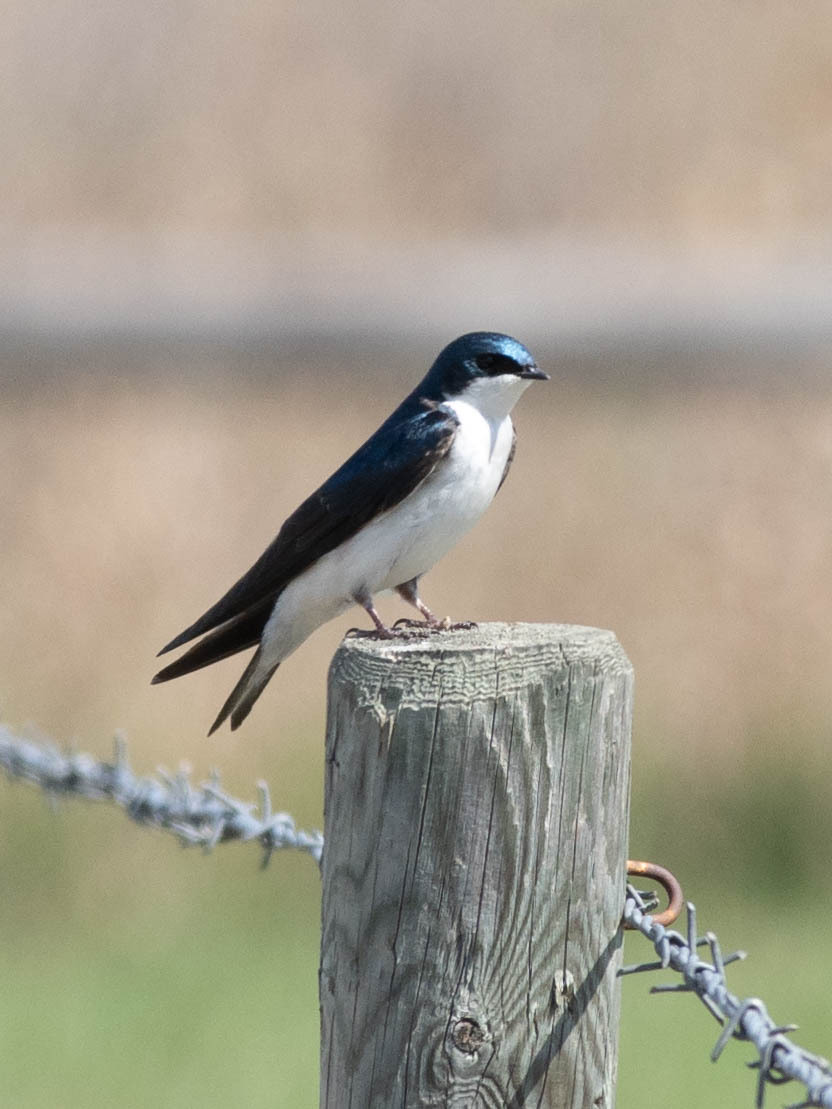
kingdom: Animalia
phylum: Chordata
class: Aves
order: Passeriformes
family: Hirundinidae
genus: Tachycineta
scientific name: Tachycineta bicolor
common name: Tree swallow
